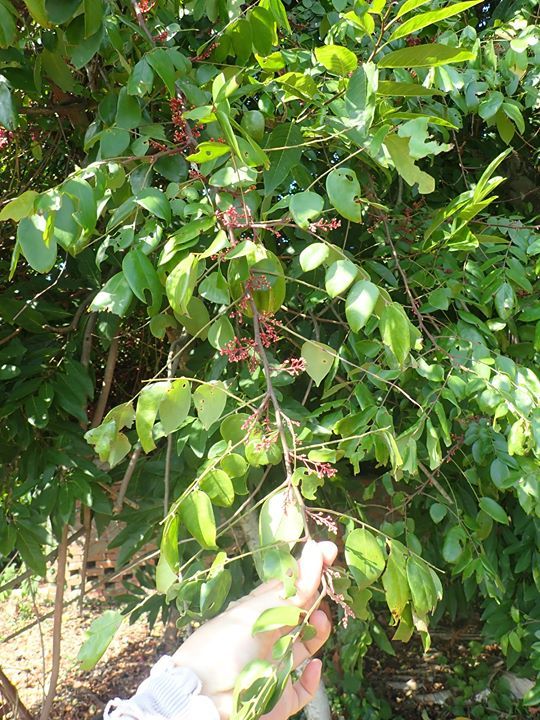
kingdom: Plantae
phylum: Tracheophyta
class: Magnoliopsida
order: Oxalidales
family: Oxalidaceae
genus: Averrhoa
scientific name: Averrhoa carambola
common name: Blimbing
